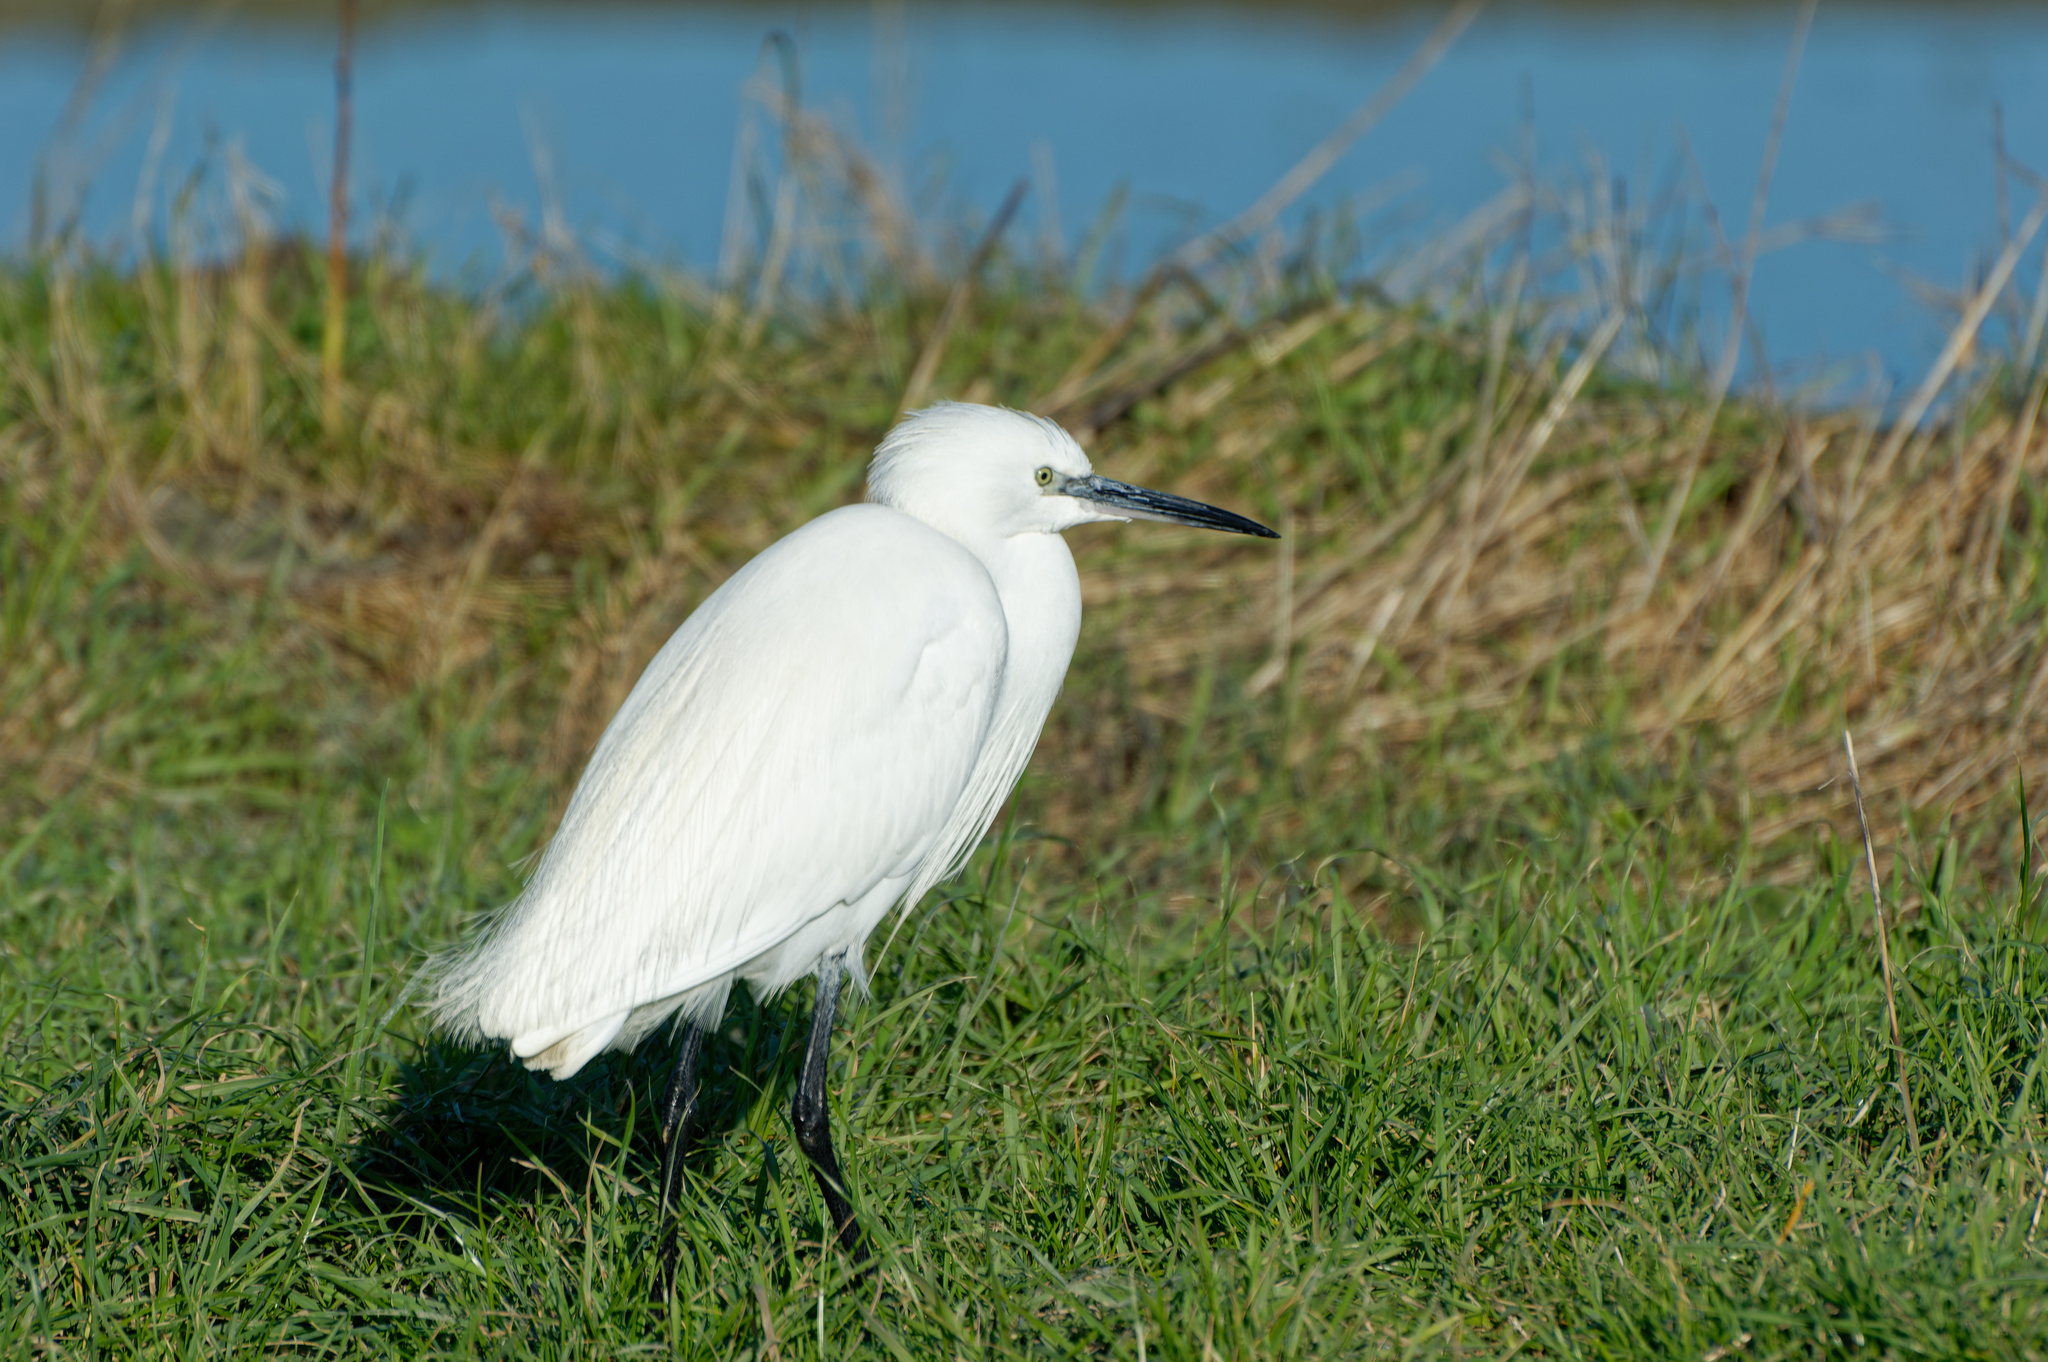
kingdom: Animalia
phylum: Chordata
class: Aves
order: Pelecaniformes
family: Ardeidae
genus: Egretta
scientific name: Egretta garzetta
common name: Little egret
